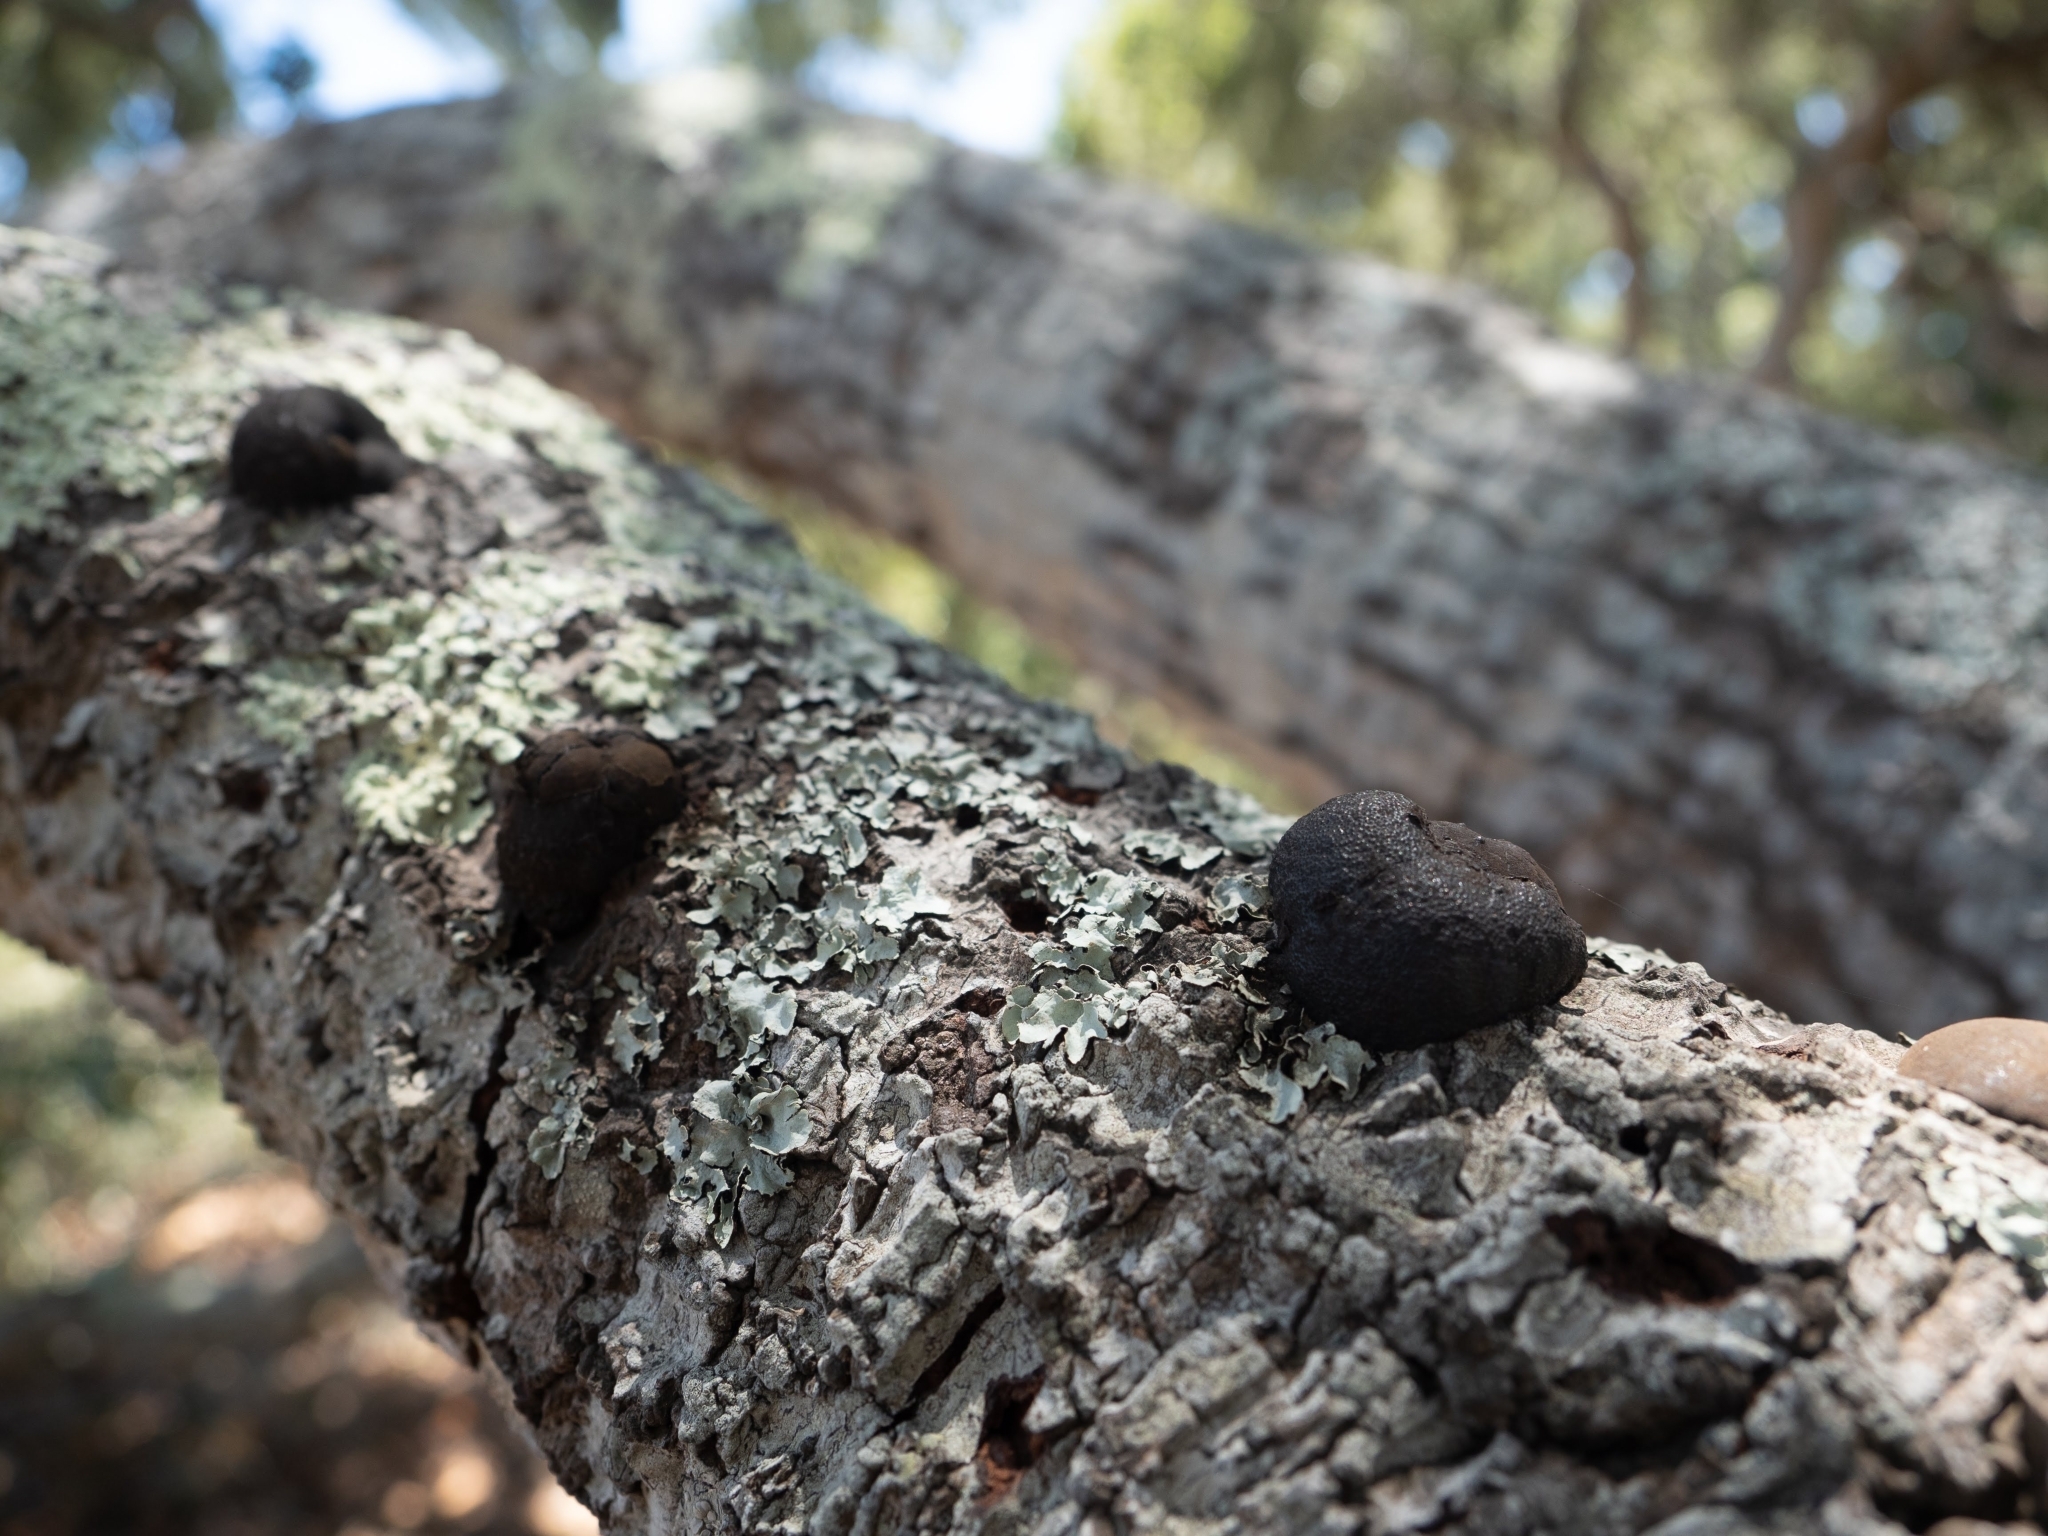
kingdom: Fungi
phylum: Ascomycota
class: Sordariomycetes
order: Xylariales
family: Hypoxylaceae
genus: Annulohypoxylon
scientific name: Annulohypoxylon thouarsianum
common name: Cramp balls
